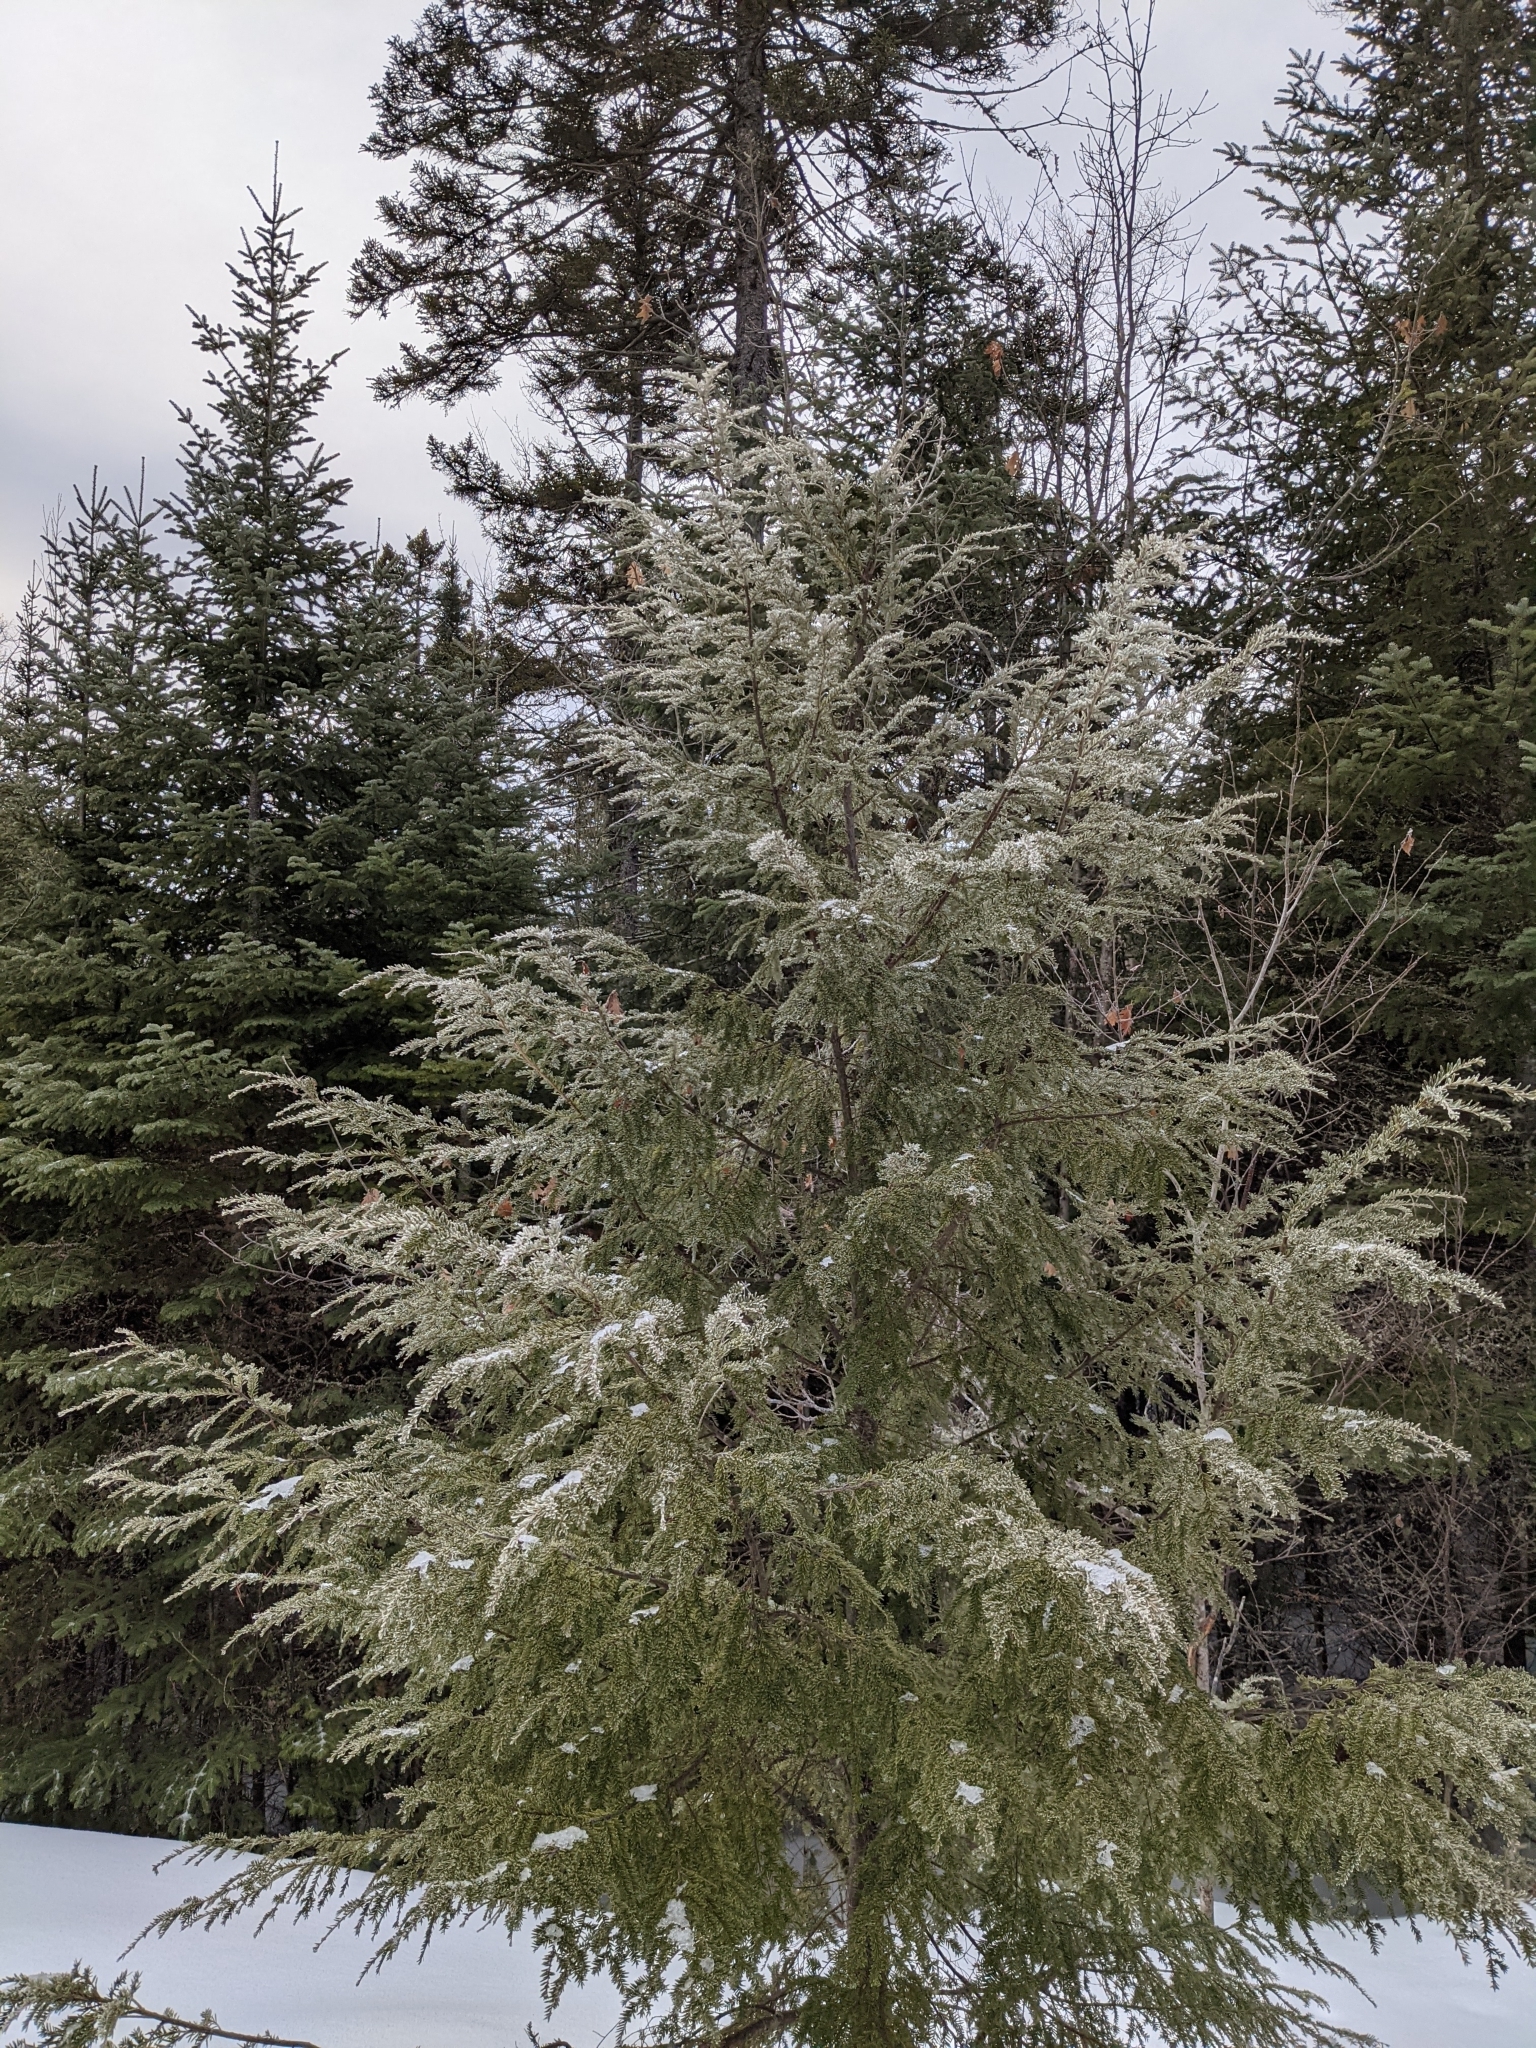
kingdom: Plantae
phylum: Tracheophyta
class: Pinopsida
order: Pinales
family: Pinaceae
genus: Tsuga
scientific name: Tsuga canadensis
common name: Eastern hemlock
